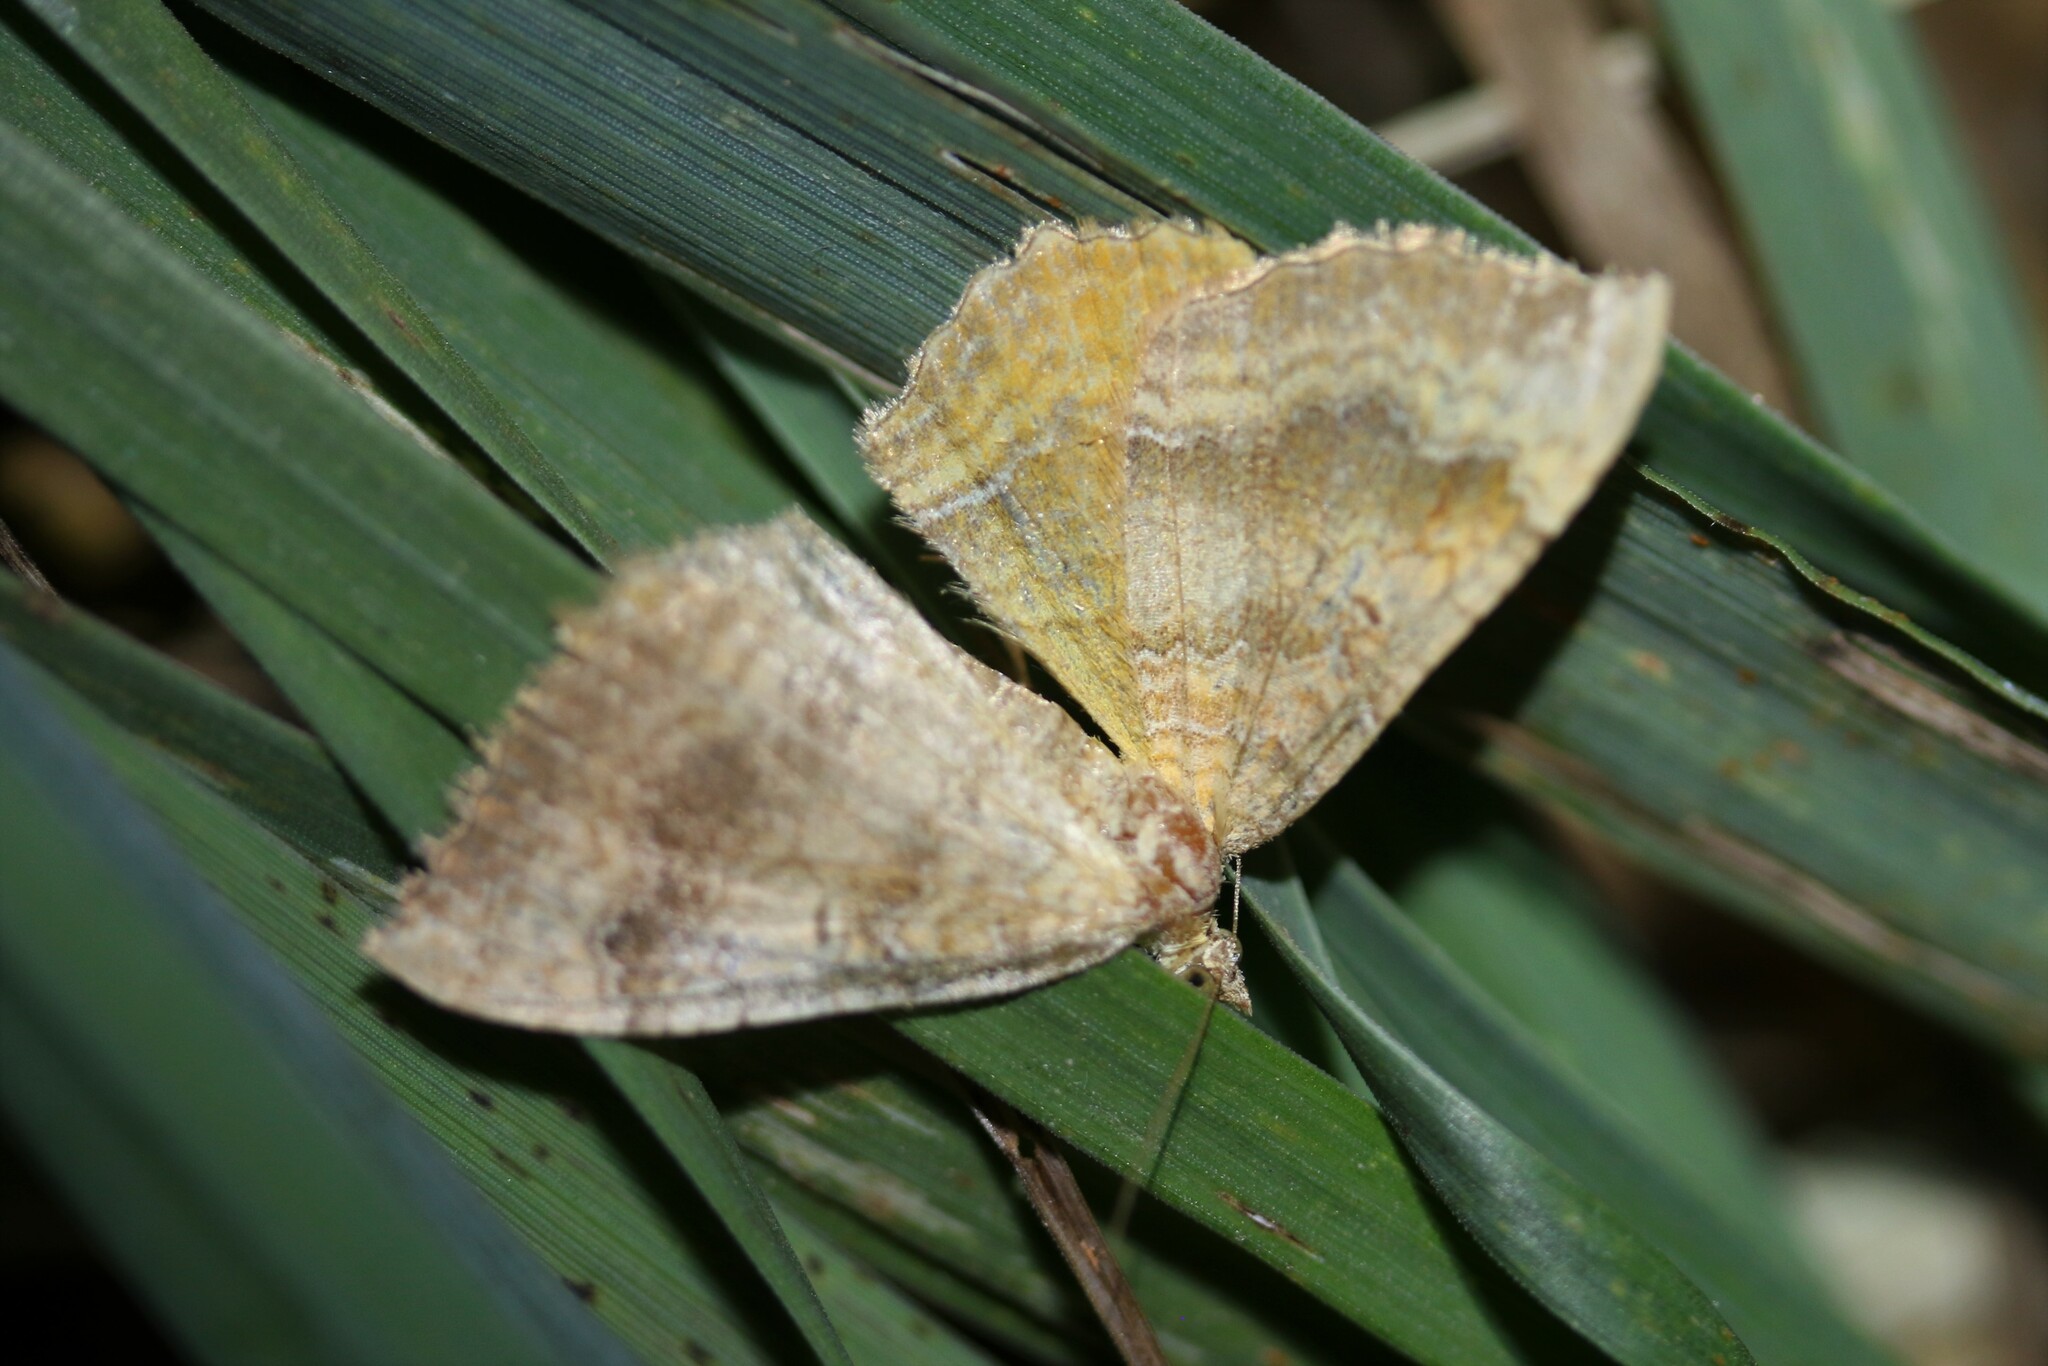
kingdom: Animalia
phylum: Arthropoda
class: Insecta
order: Lepidoptera
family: Geometridae
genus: Camptogramma
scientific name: Camptogramma bilineata
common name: Yellow shell
